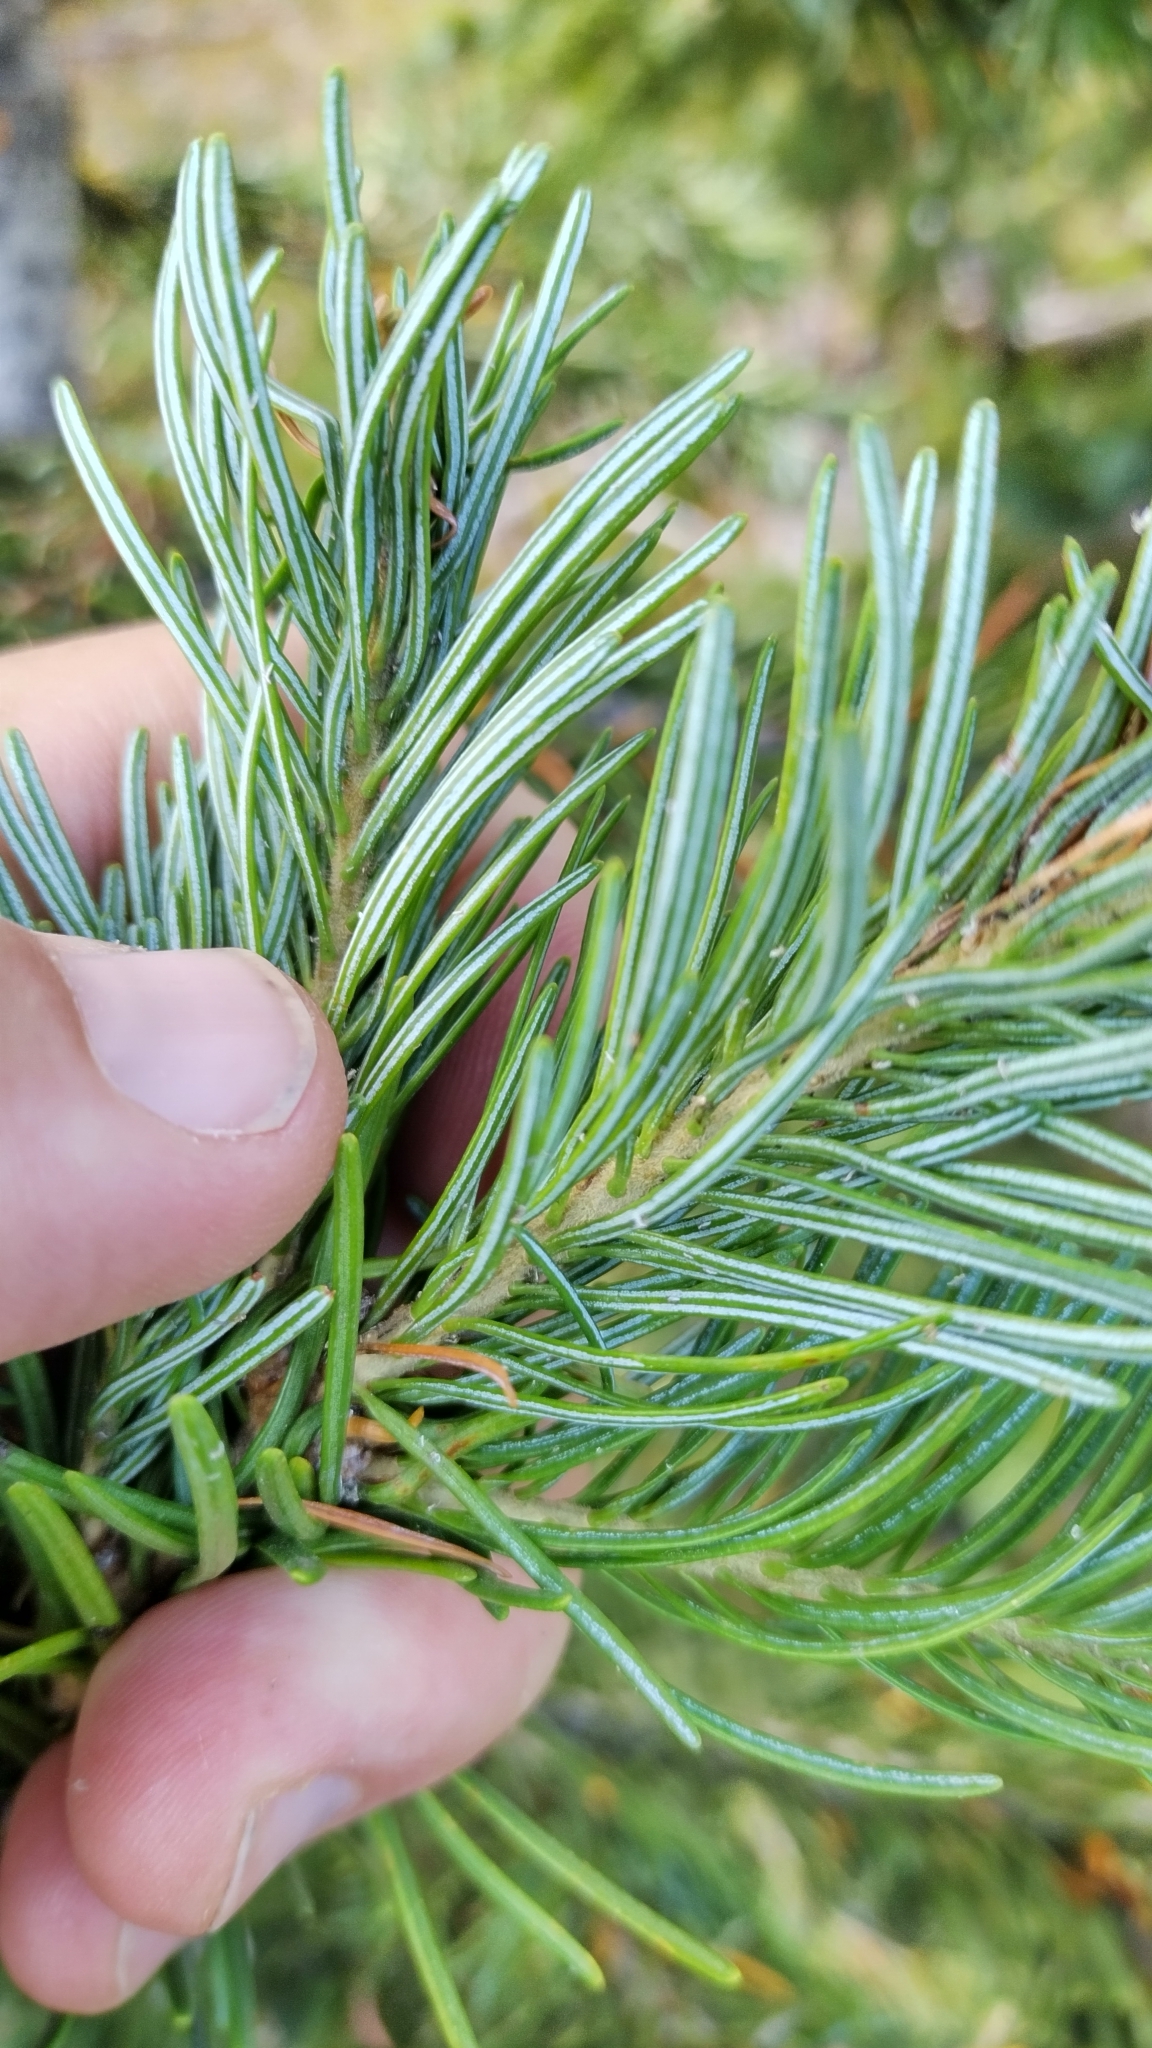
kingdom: Plantae
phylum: Tracheophyta
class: Pinopsida
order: Pinales
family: Pinaceae
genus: Abies
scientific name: Abies lasiocarpa
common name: Subalpine fir
